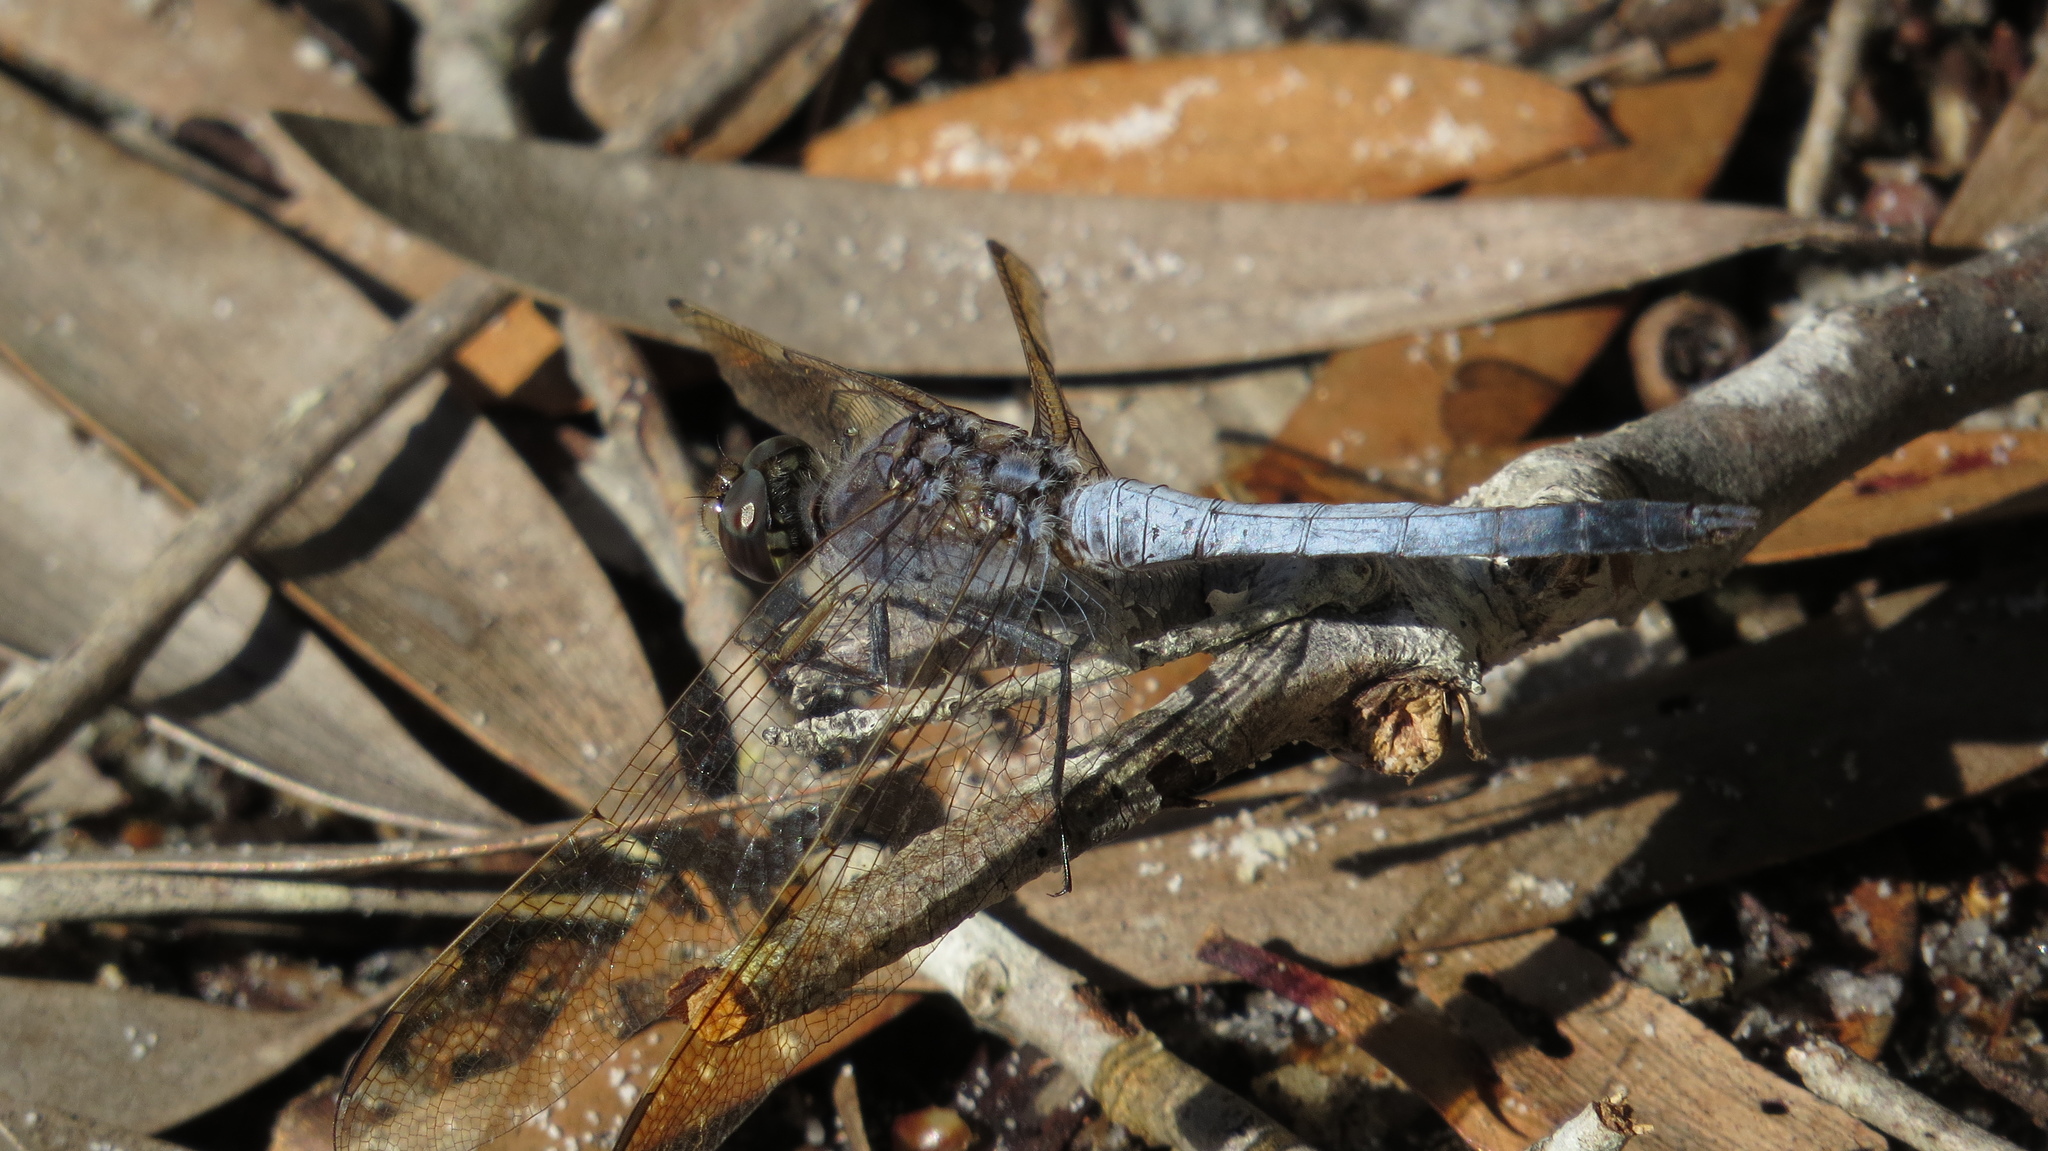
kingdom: Animalia
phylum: Arthropoda
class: Insecta
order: Odonata
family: Libellulidae
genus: Orthetrum
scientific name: Orthetrum caledonicum
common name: Blue skimmer
